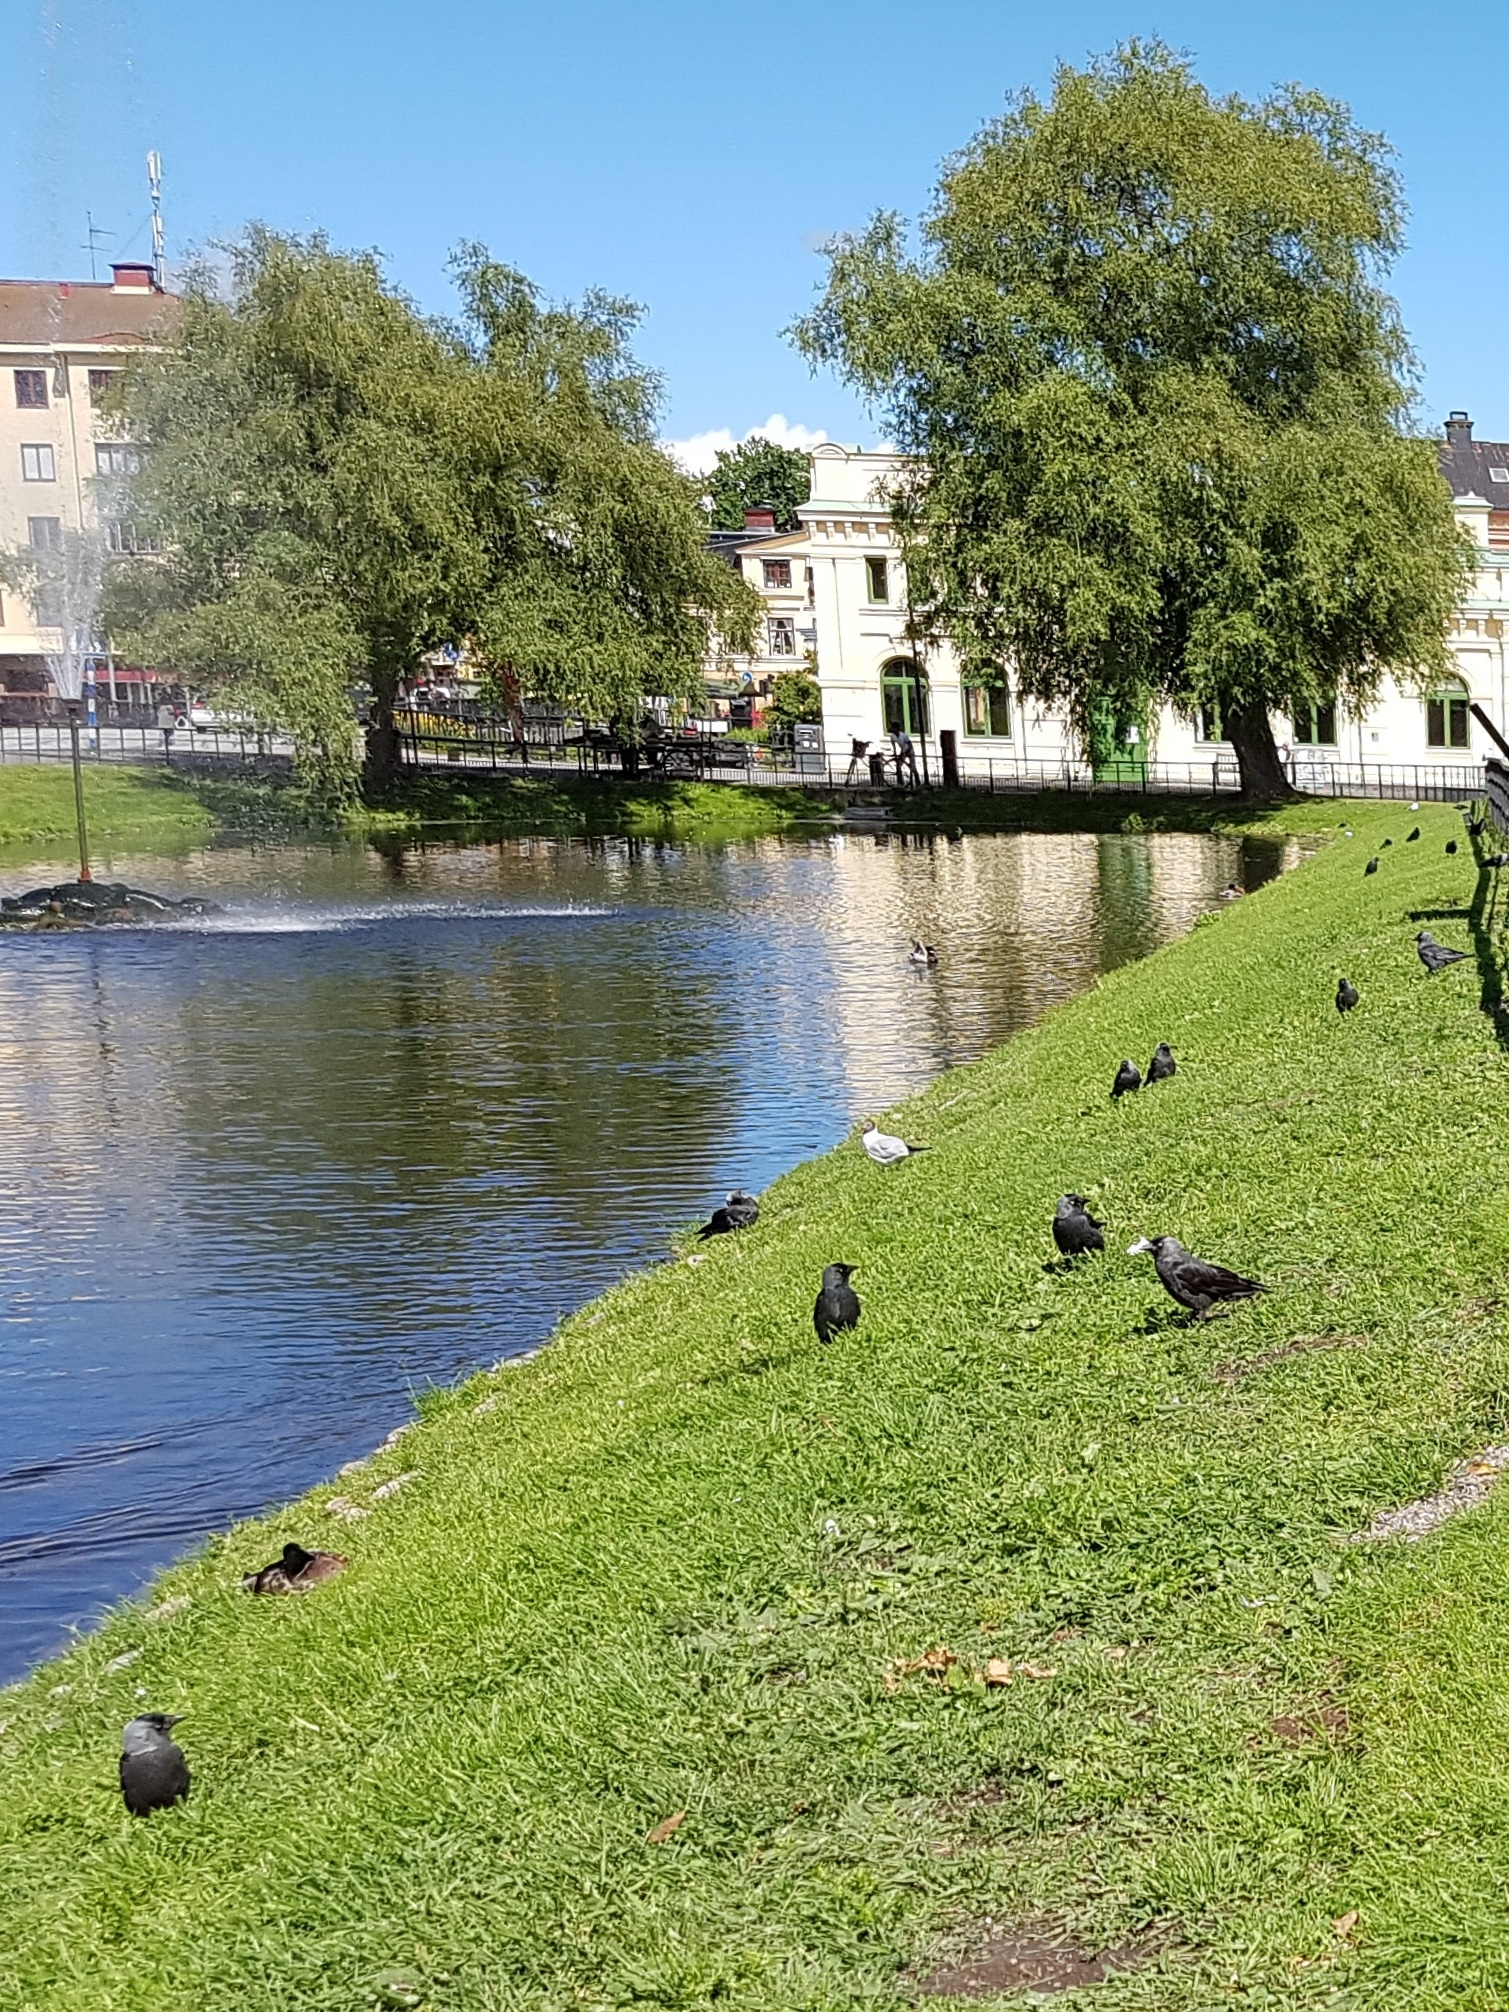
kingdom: Animalia
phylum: Chordata
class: Aves
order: Passeriformes
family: Corvidae
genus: Coloeus
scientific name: Coloeus monedula
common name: Western jackdaw
